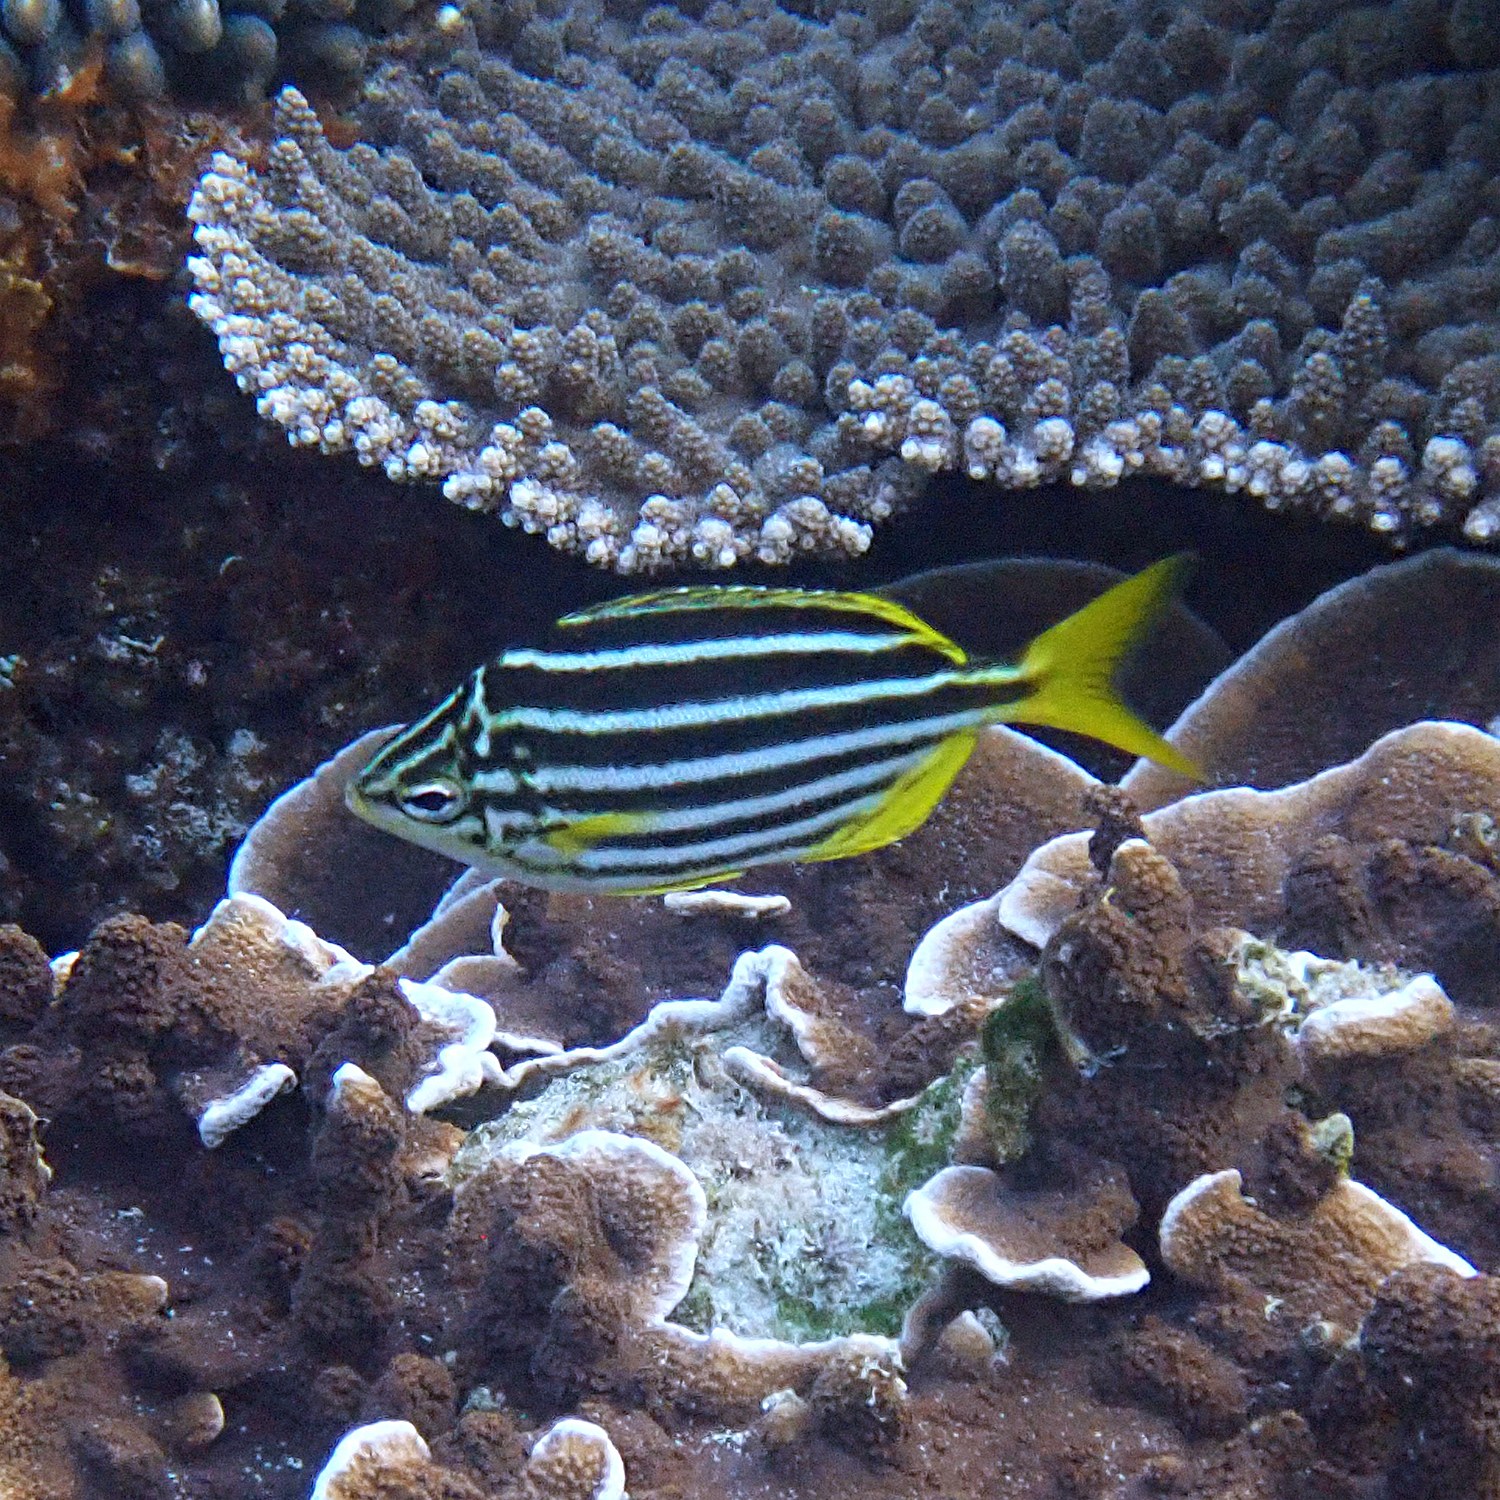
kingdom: Animalia
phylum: Chordata
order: Perciformes
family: Kyphosidae
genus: Atypichthys
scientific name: Atypichthys latus
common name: Mado
